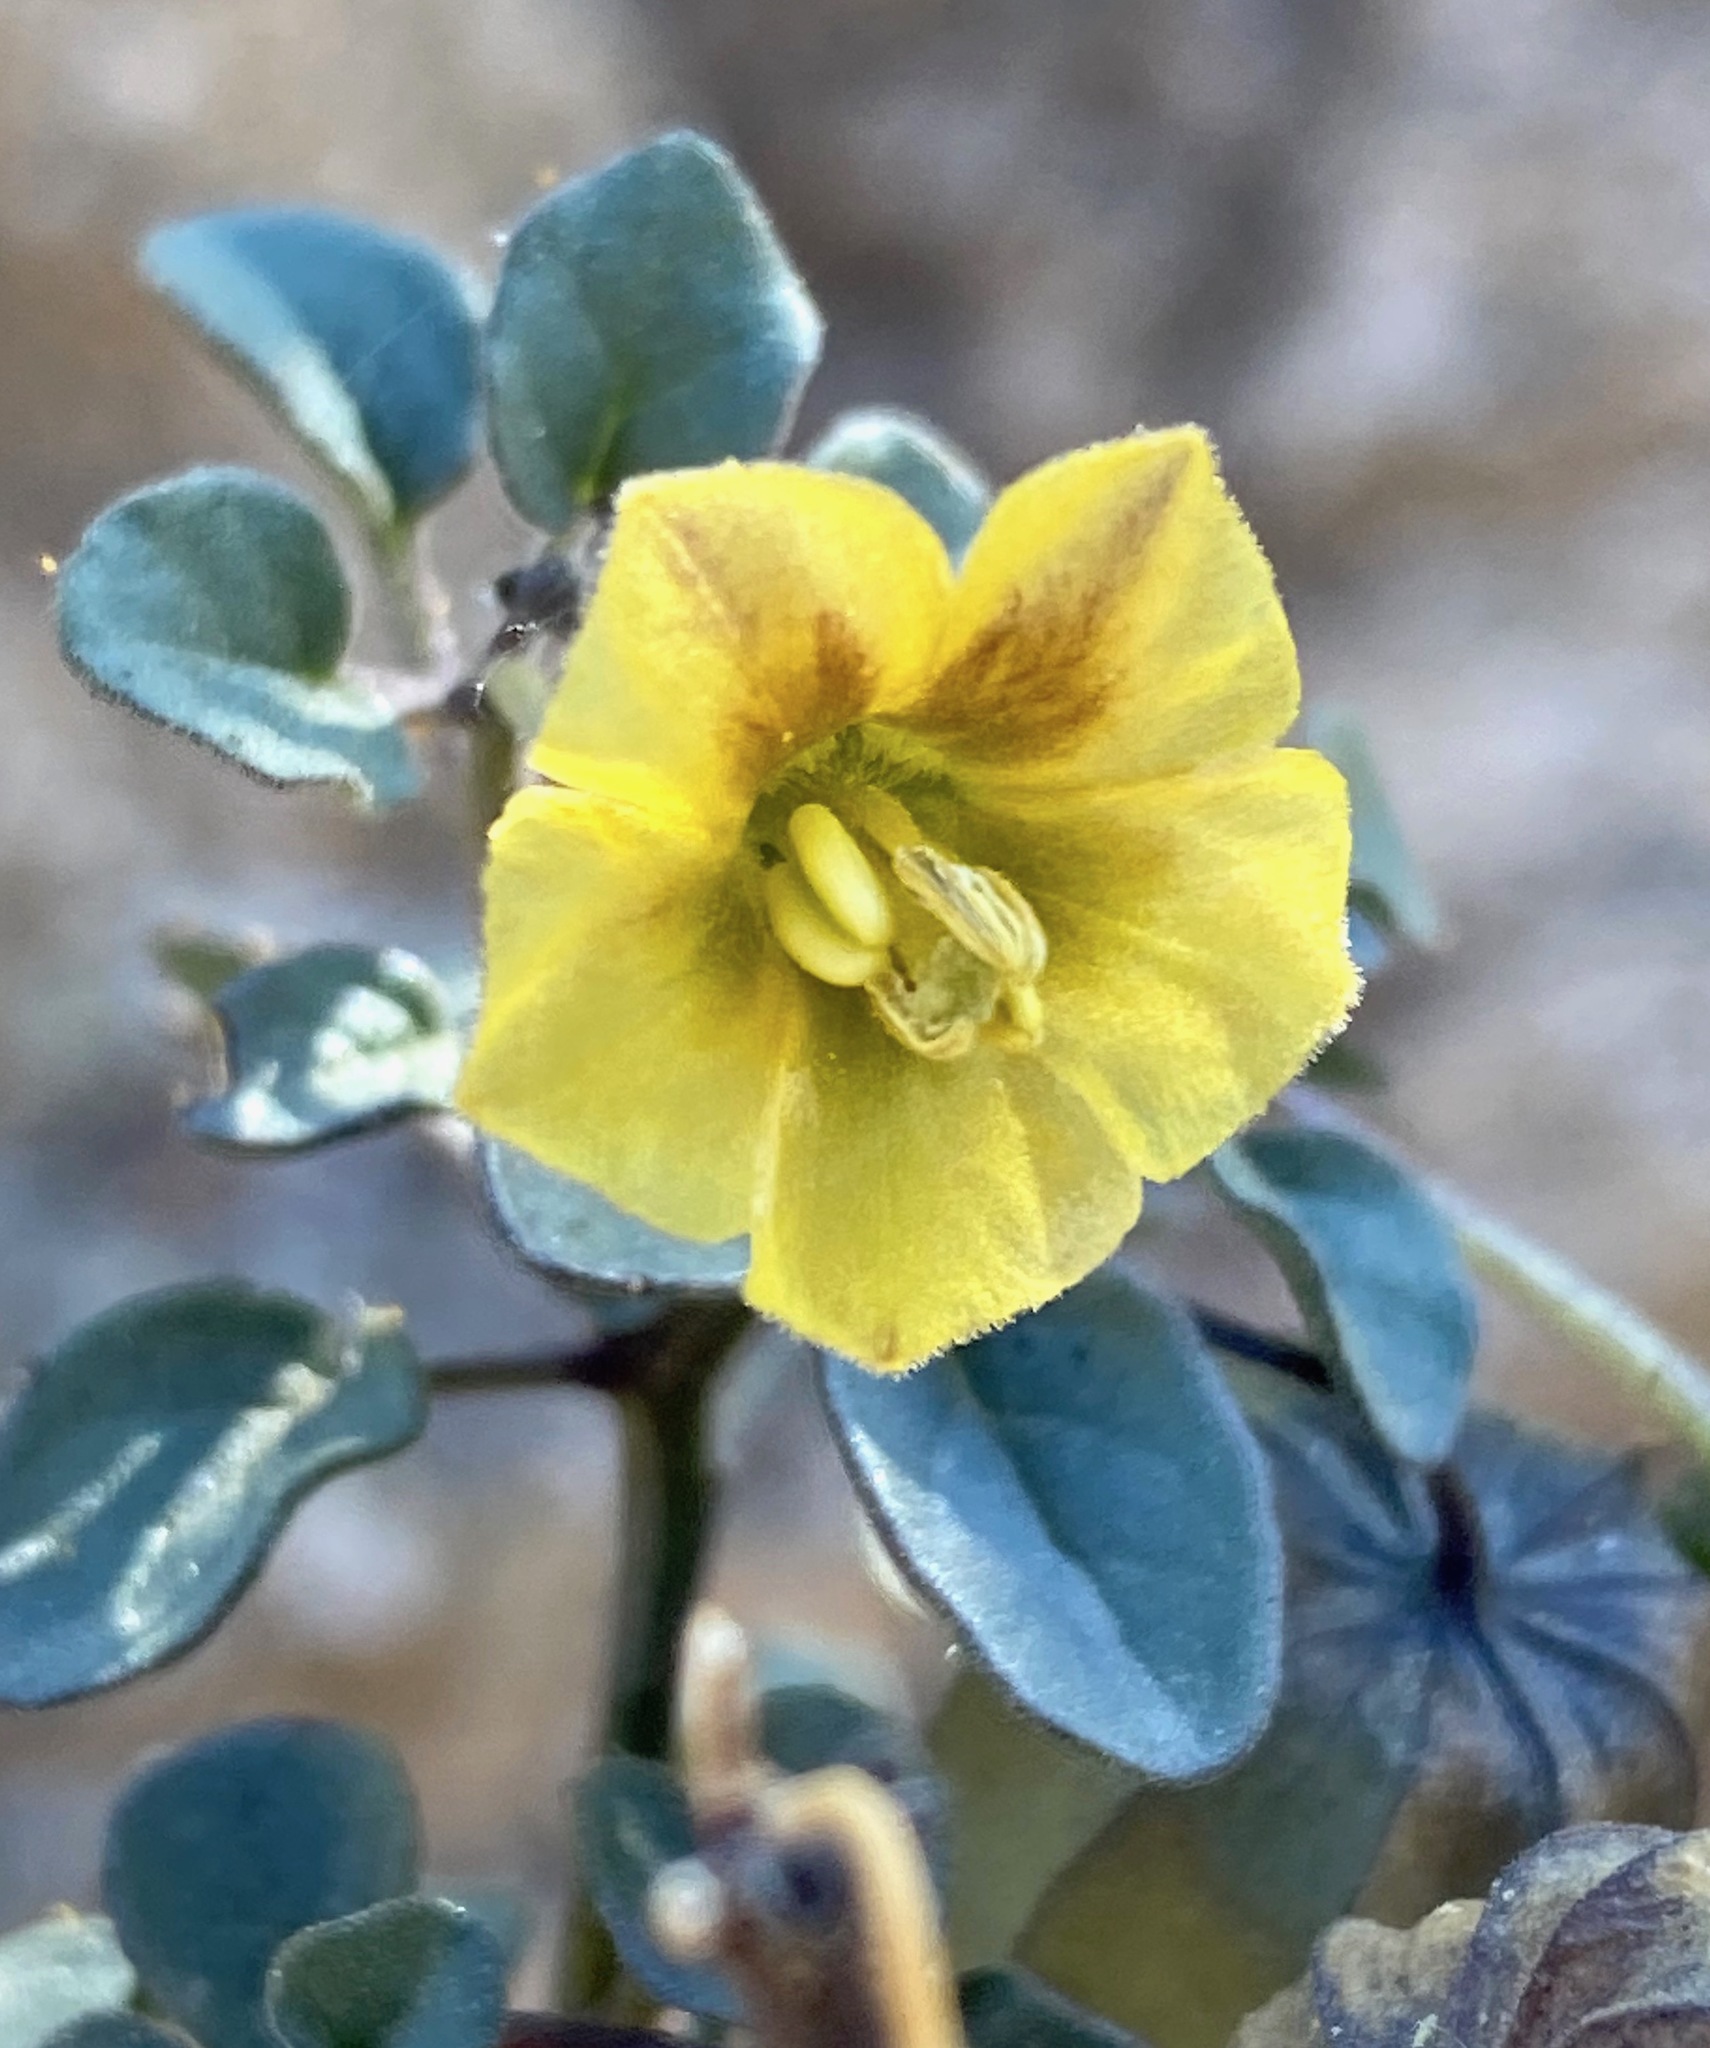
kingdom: Plantae
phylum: Tracheophyta
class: Magnoliopsida
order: Solanales
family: Solanaceae
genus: Physalis
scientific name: Physalis crassifolia
